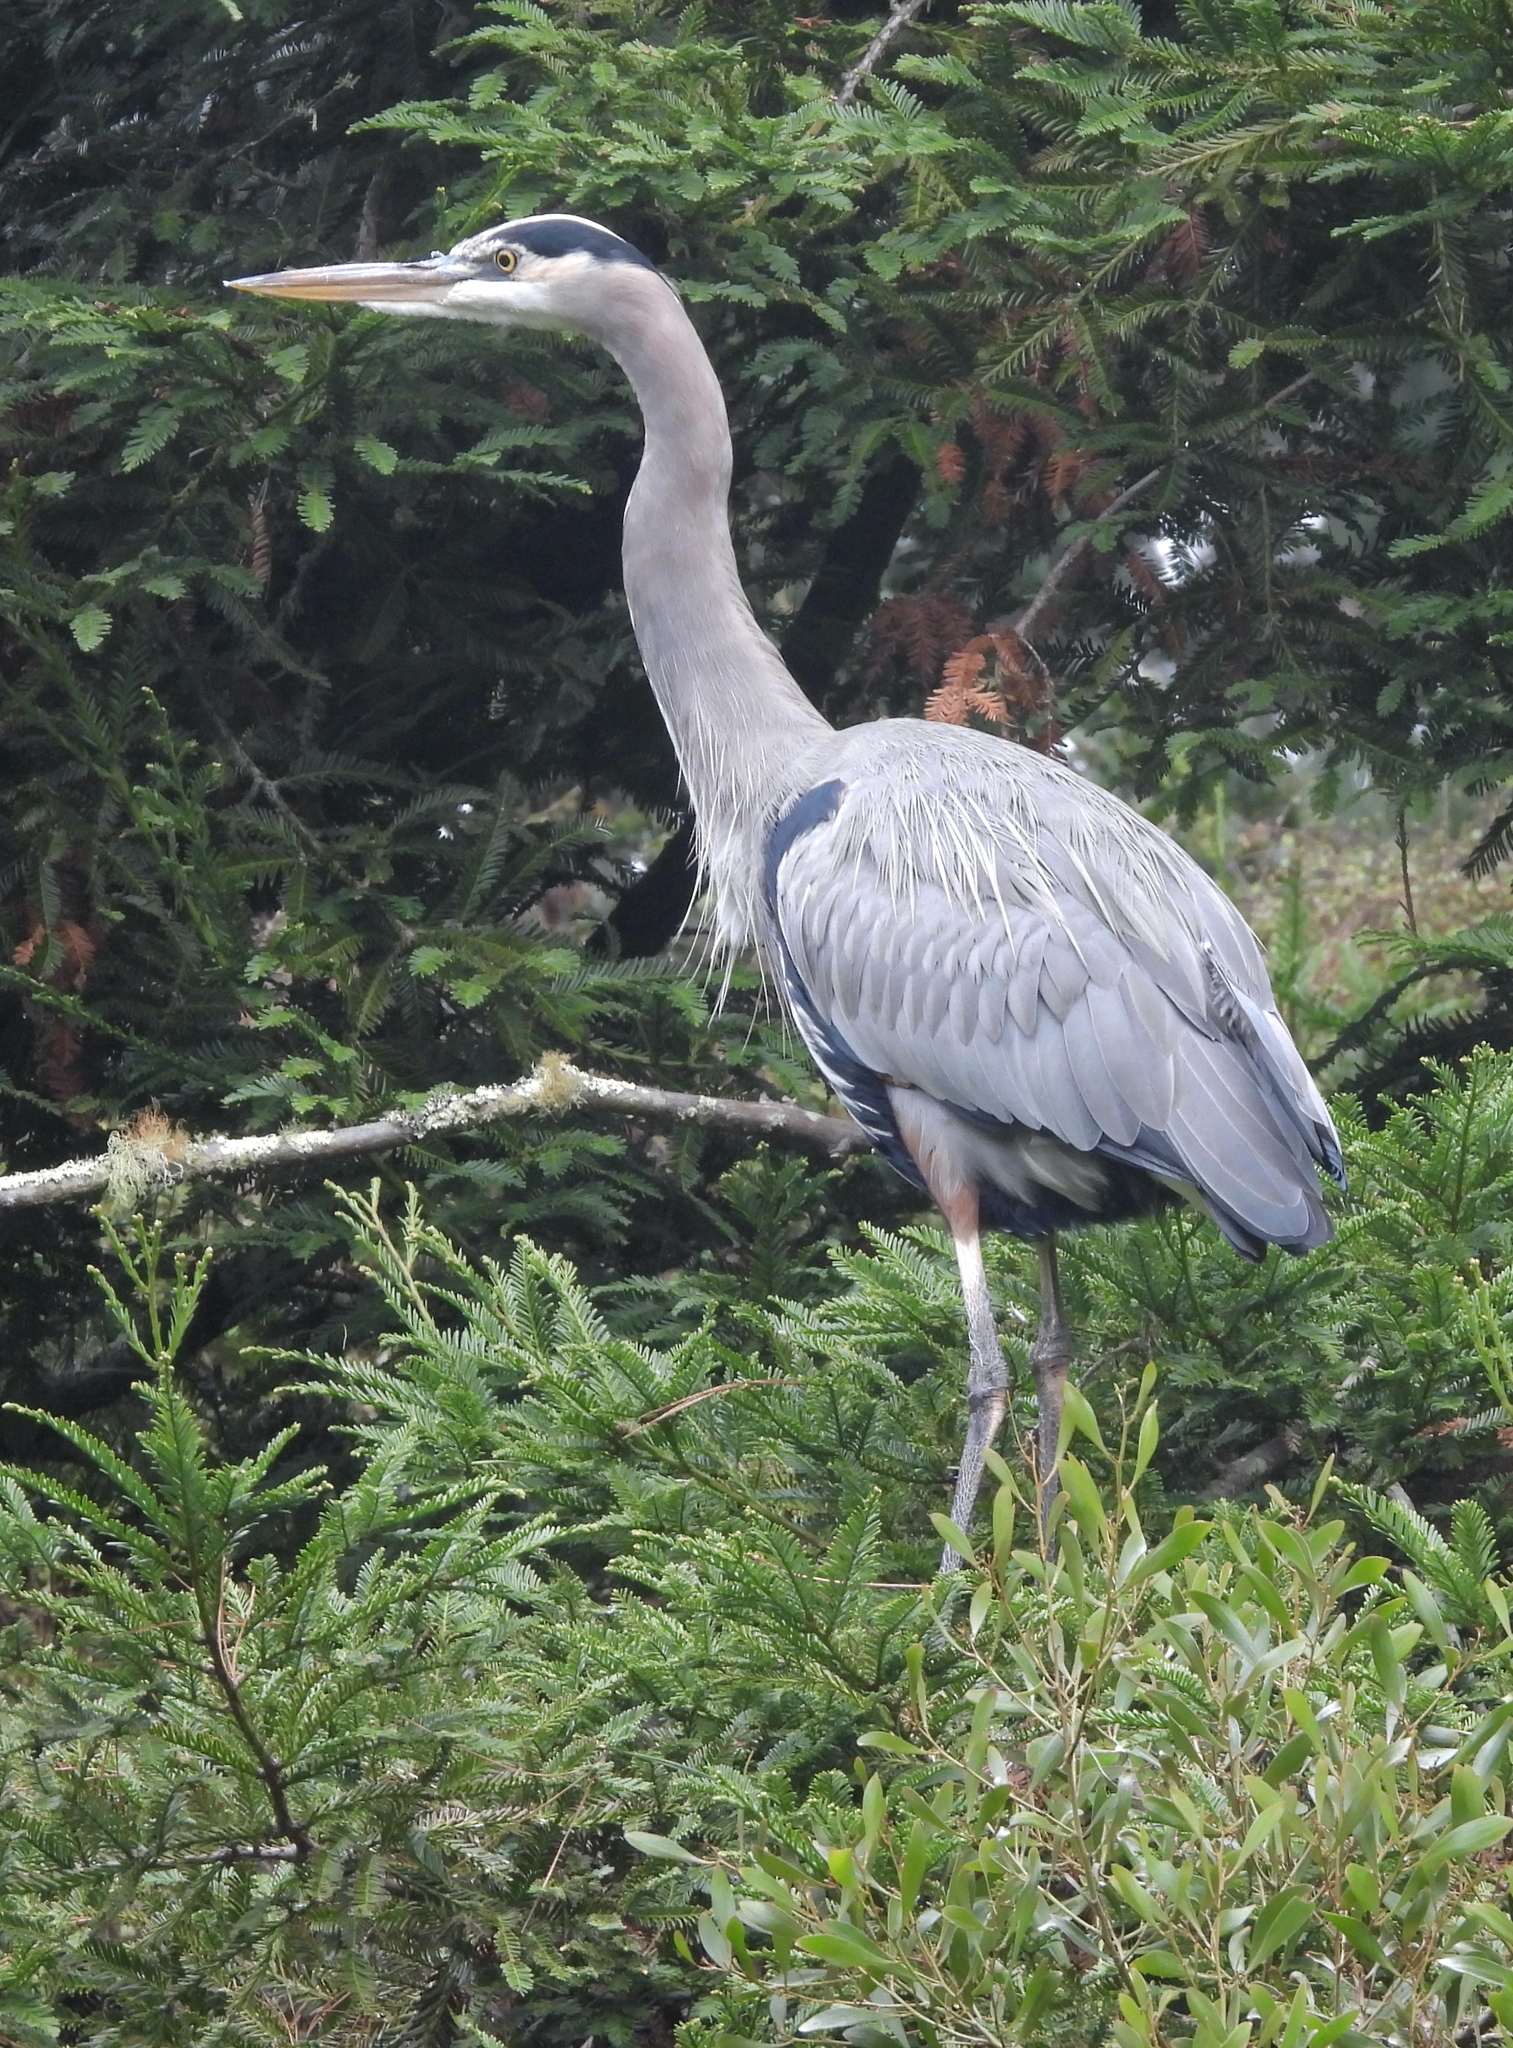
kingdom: Animalia
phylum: Chordata
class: Aves
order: Pelecaniformes
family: Ardeidae
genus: Ardea
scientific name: Ardea herodias
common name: Great blue heron
